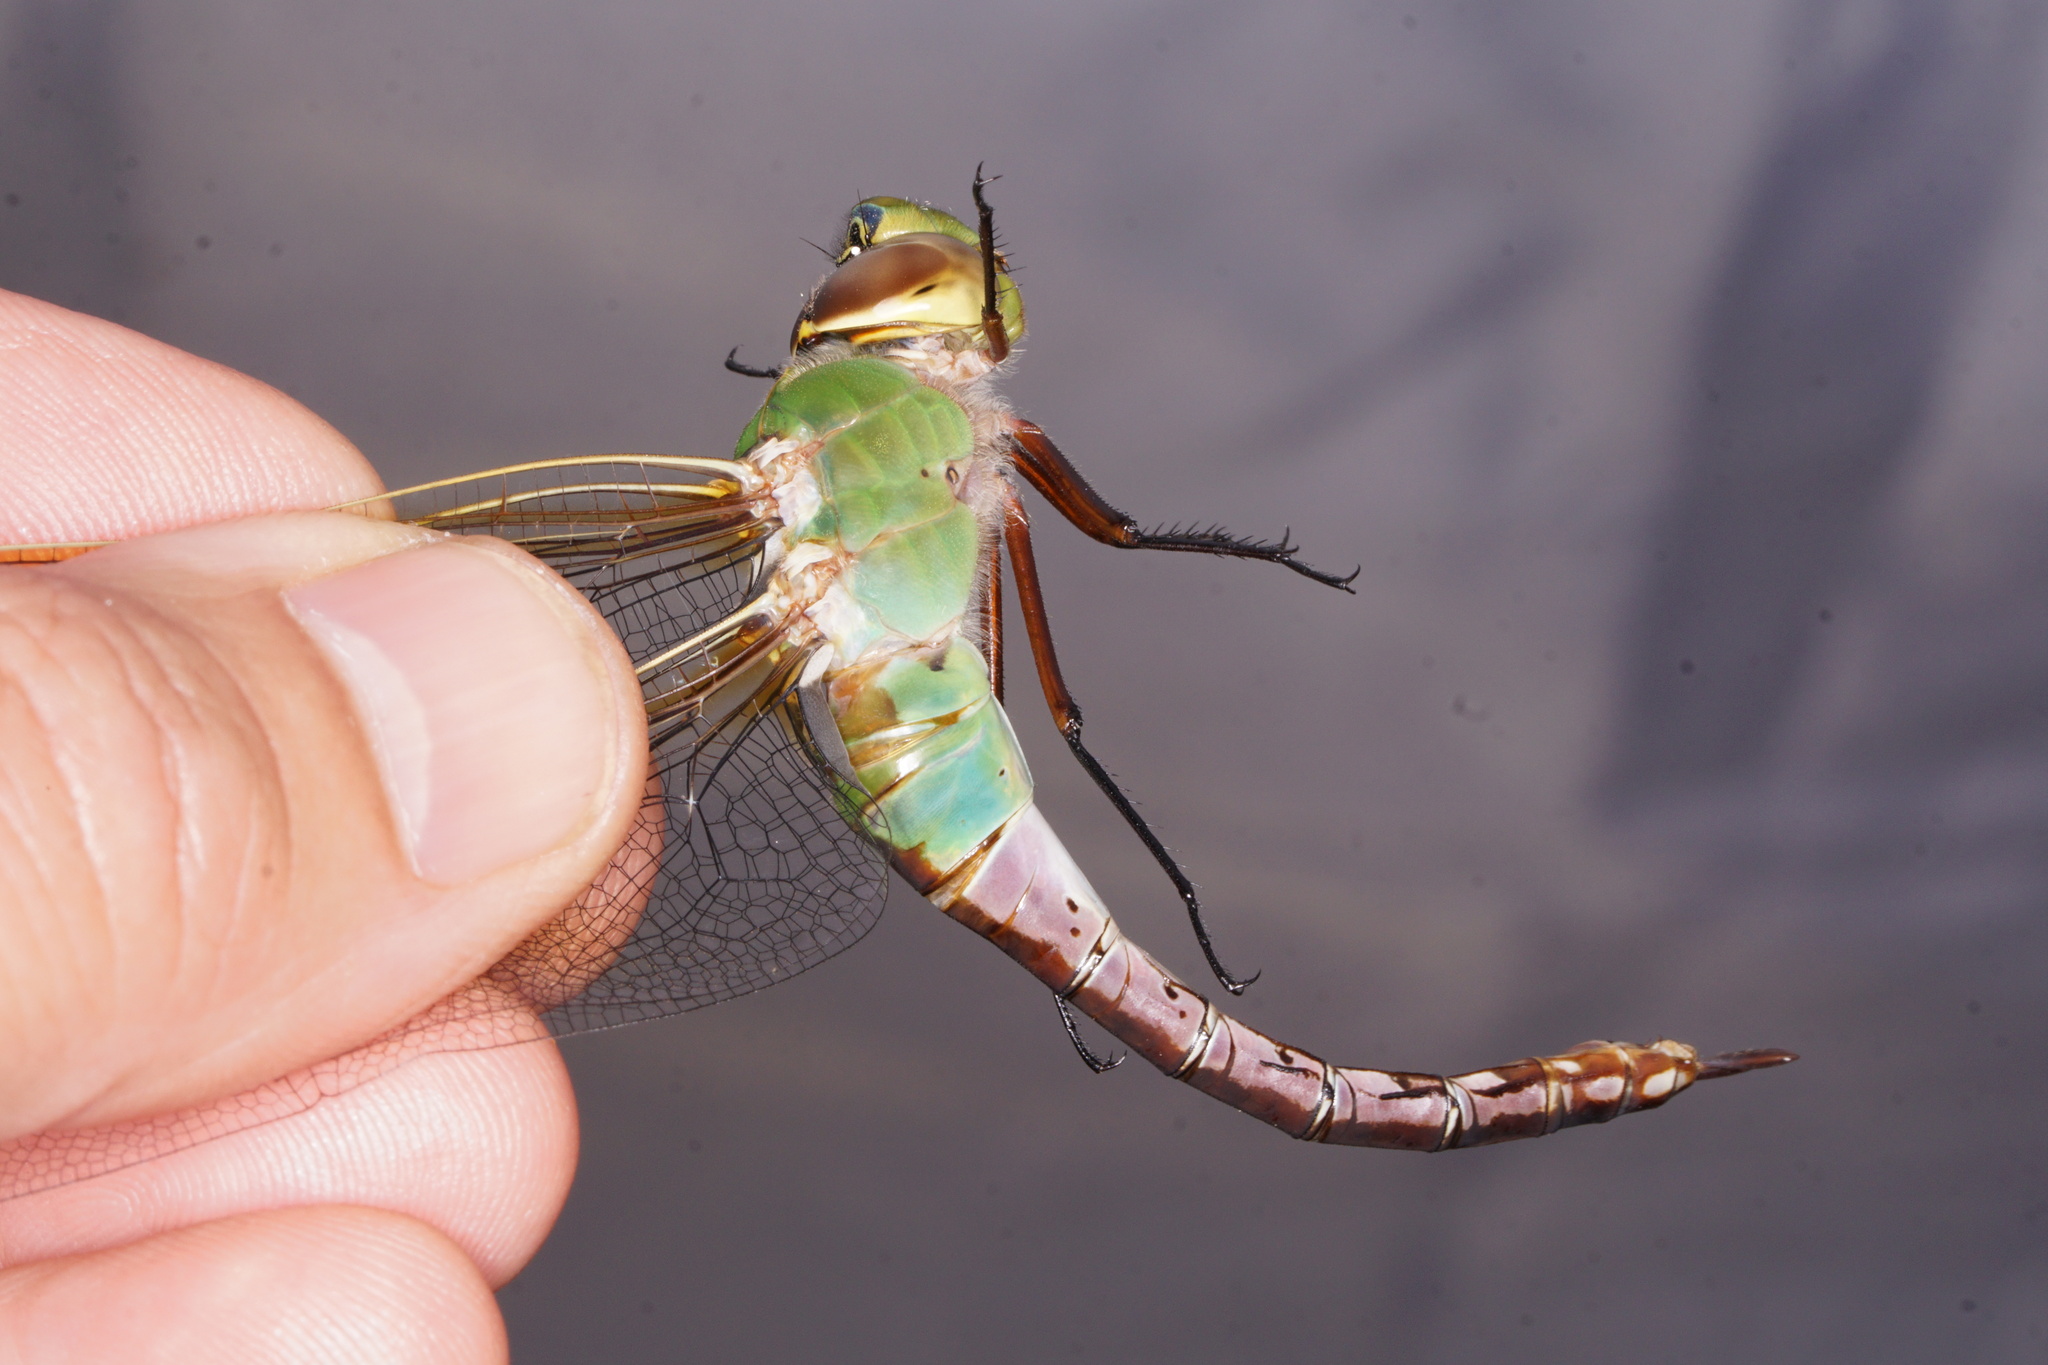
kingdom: Animalia
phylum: Arthropoda
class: Insecta
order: Odonata
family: Aeshnidae
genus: Anax
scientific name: Anax junius
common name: Common green darner
